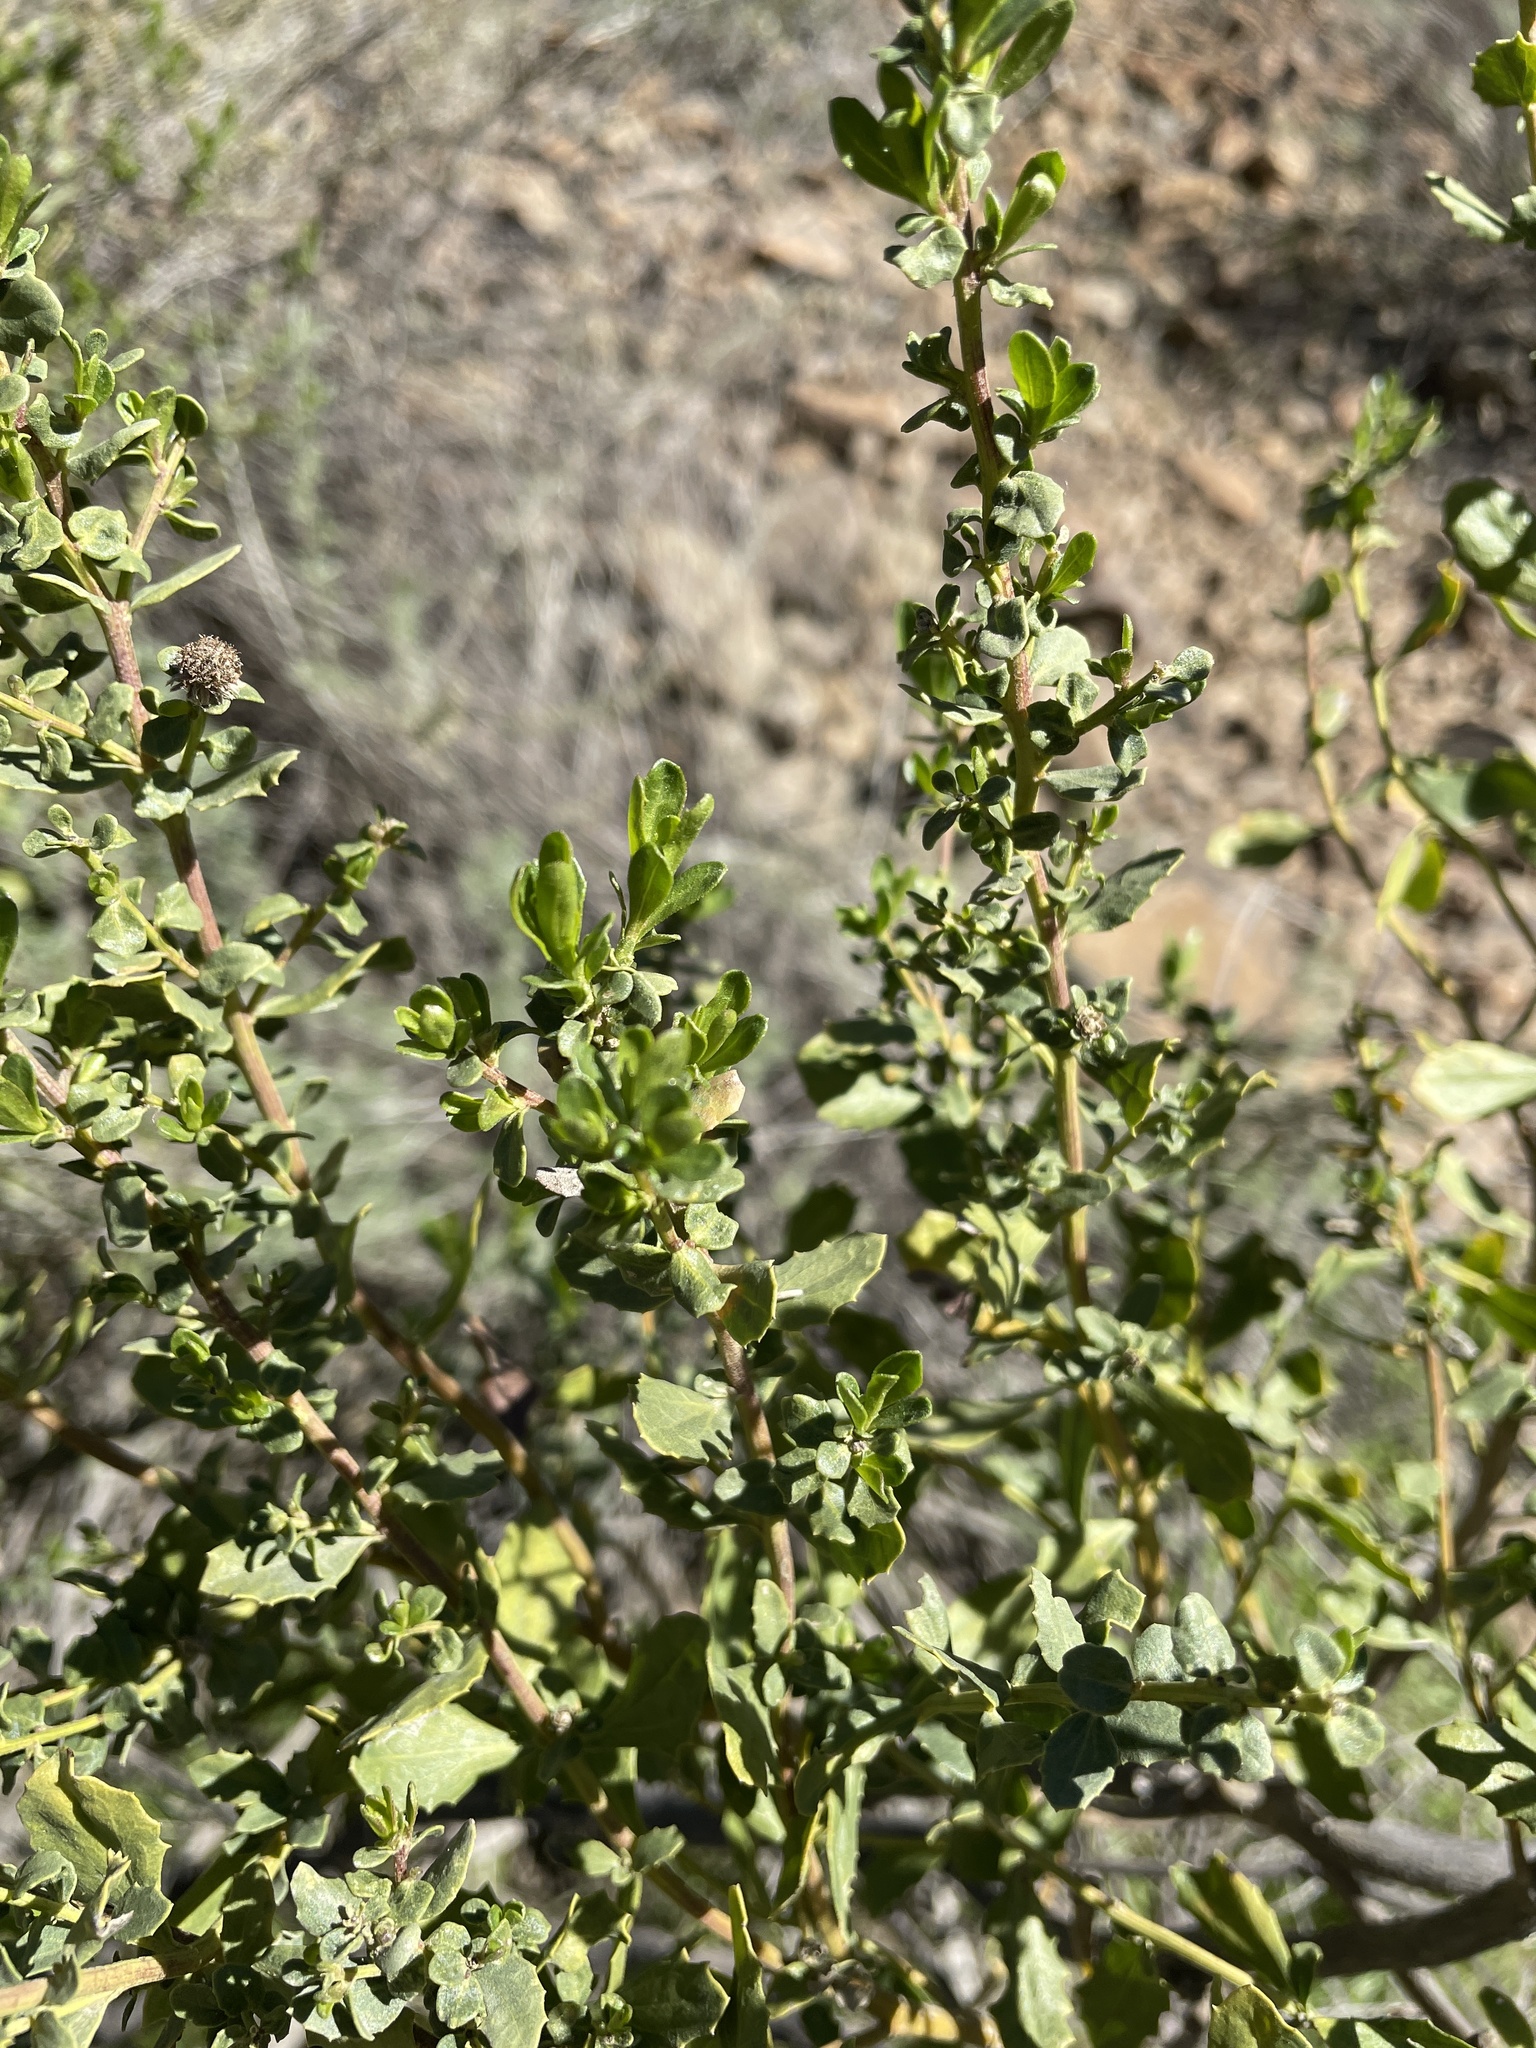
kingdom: Plantae
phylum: Tracheophyta
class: Magnoliopsida
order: Asterales
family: Asteraceae
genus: Baccharis
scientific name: Baccharis pilularis
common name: Coyotebrush
